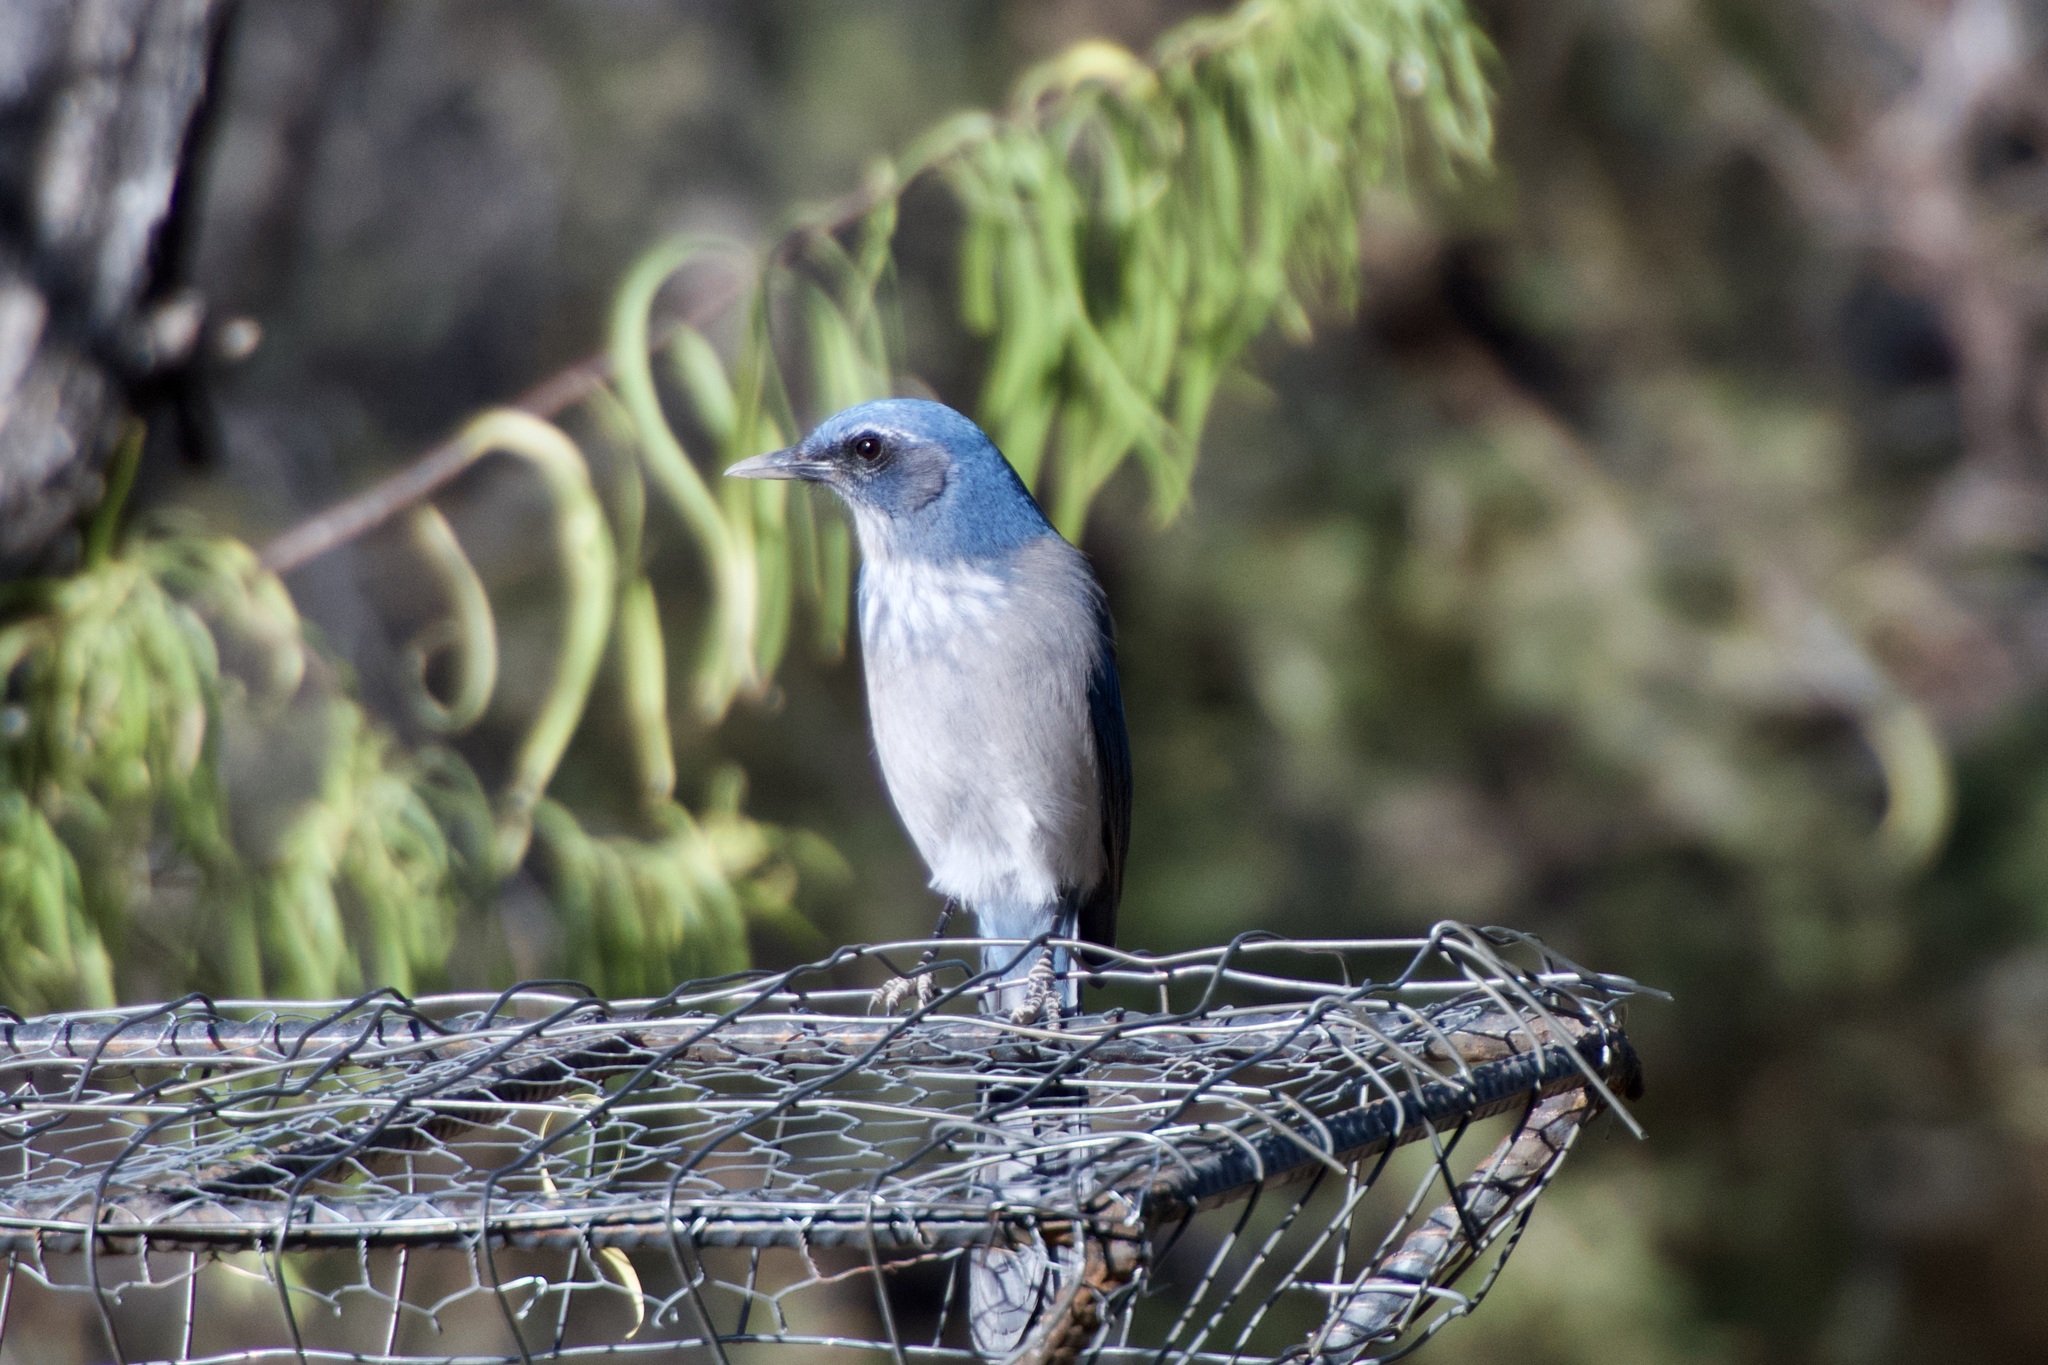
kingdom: Animalia
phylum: Chordata
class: Aves
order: Passeriformes
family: Corvidae
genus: Aphelocoma
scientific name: Aphelocoma wollweberi
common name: Mexican jay
